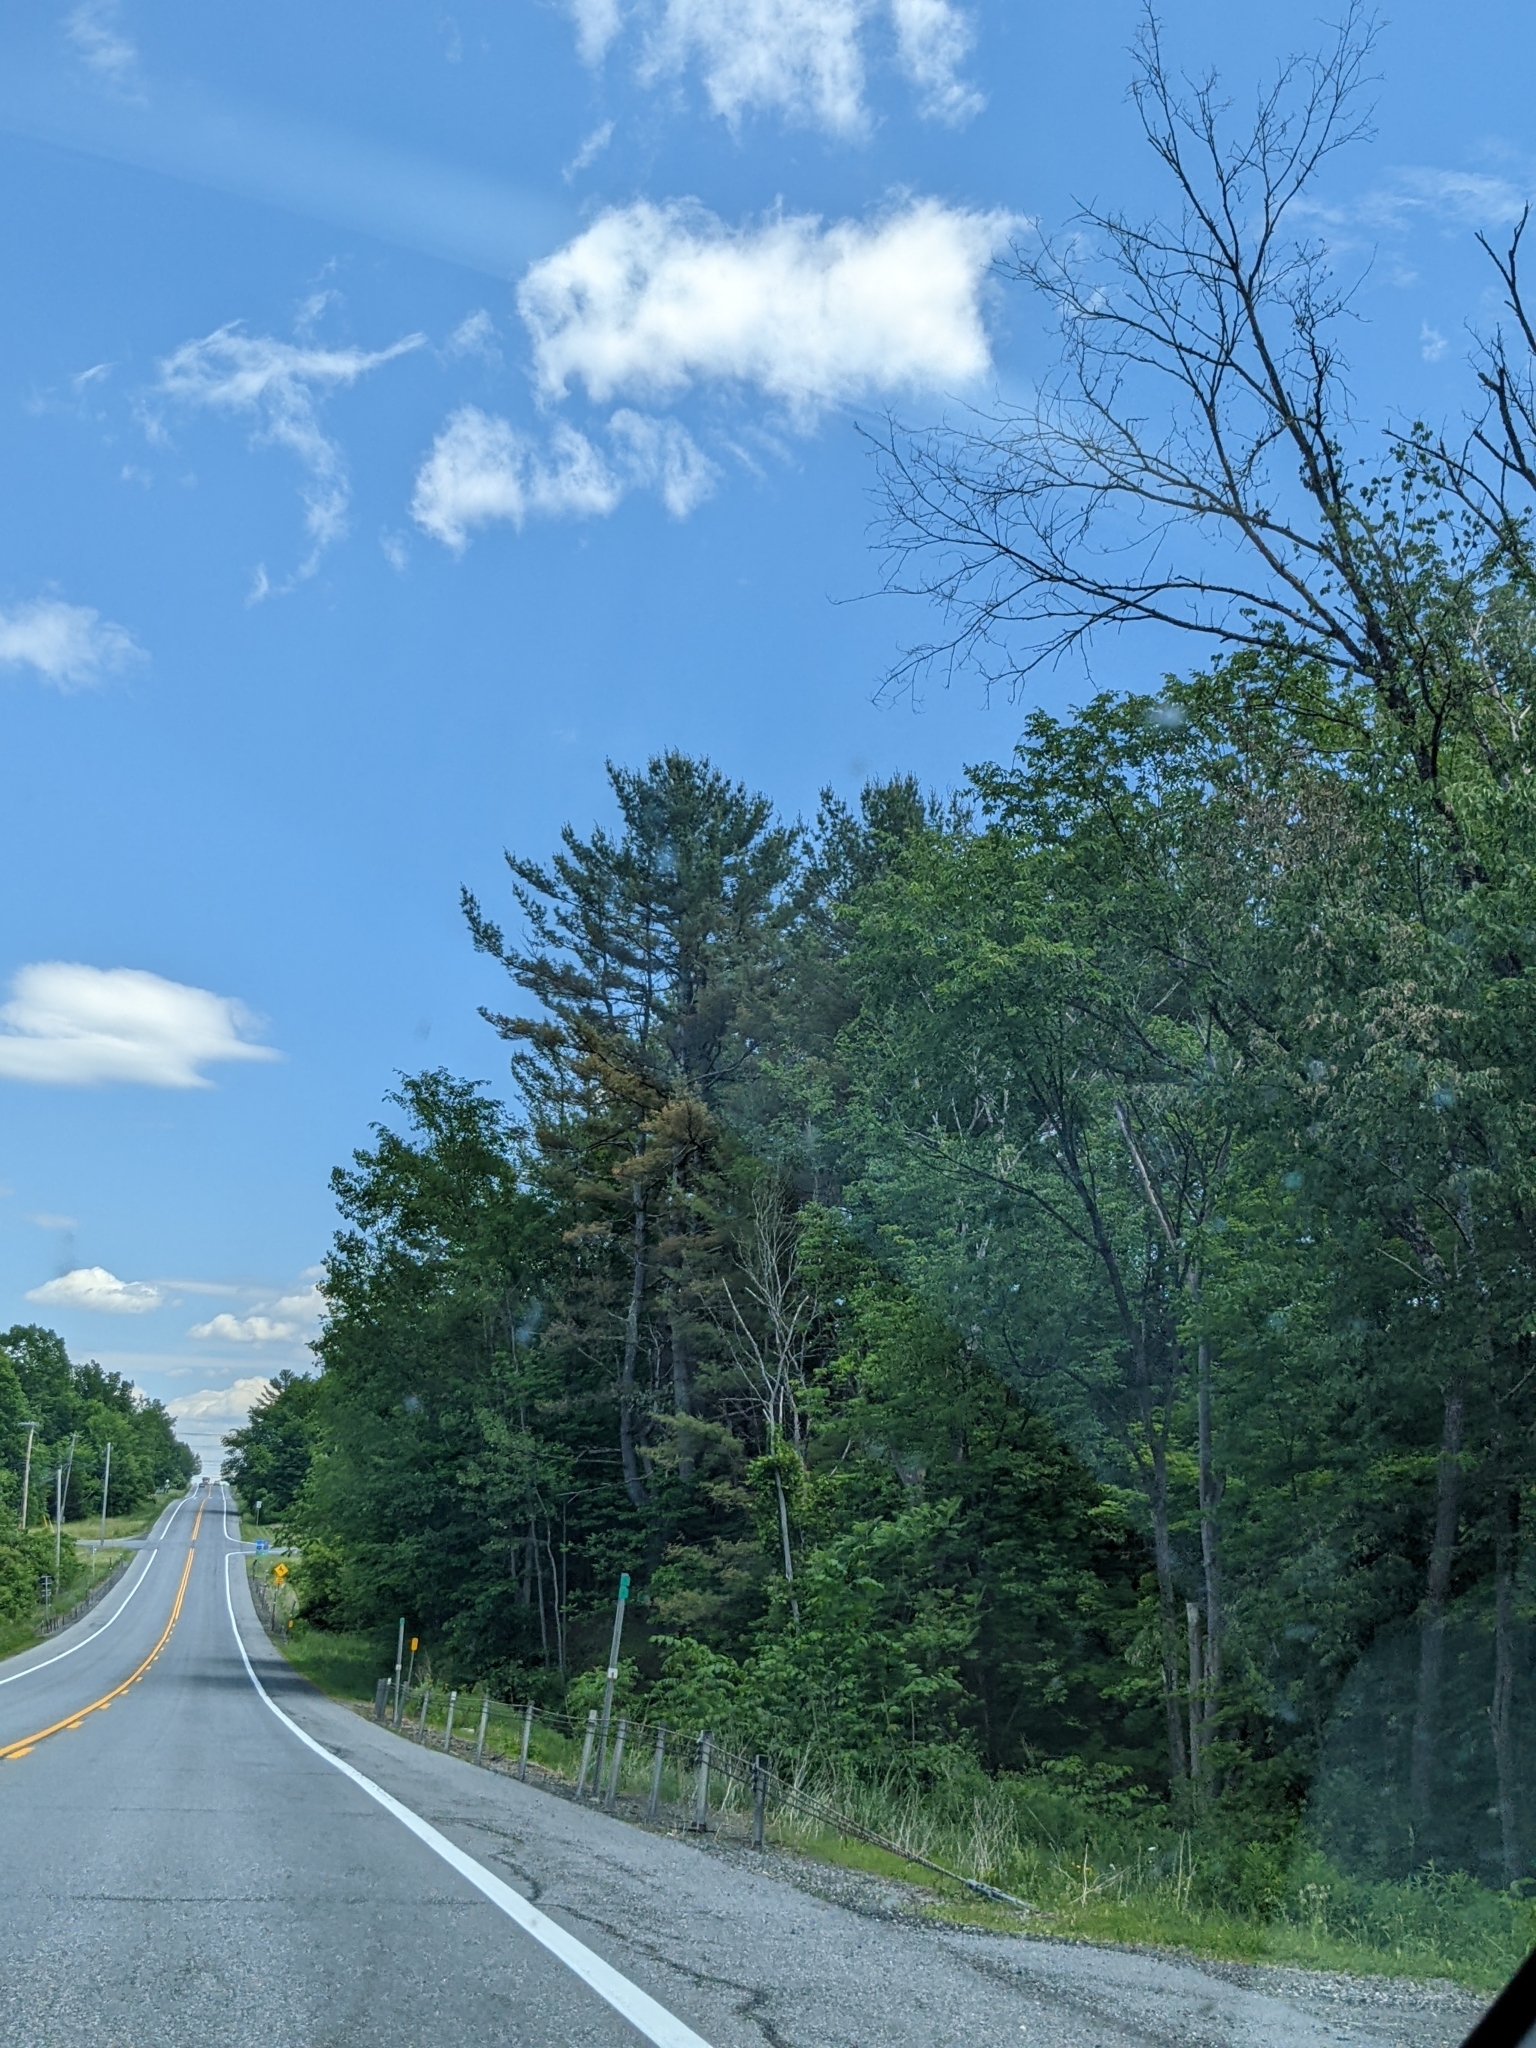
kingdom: Plantae
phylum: Tracheophyta
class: Pinopsida
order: Pinales
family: Pinaceae
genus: Pinus
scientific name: Pinus strobus
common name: Weymouth pine
